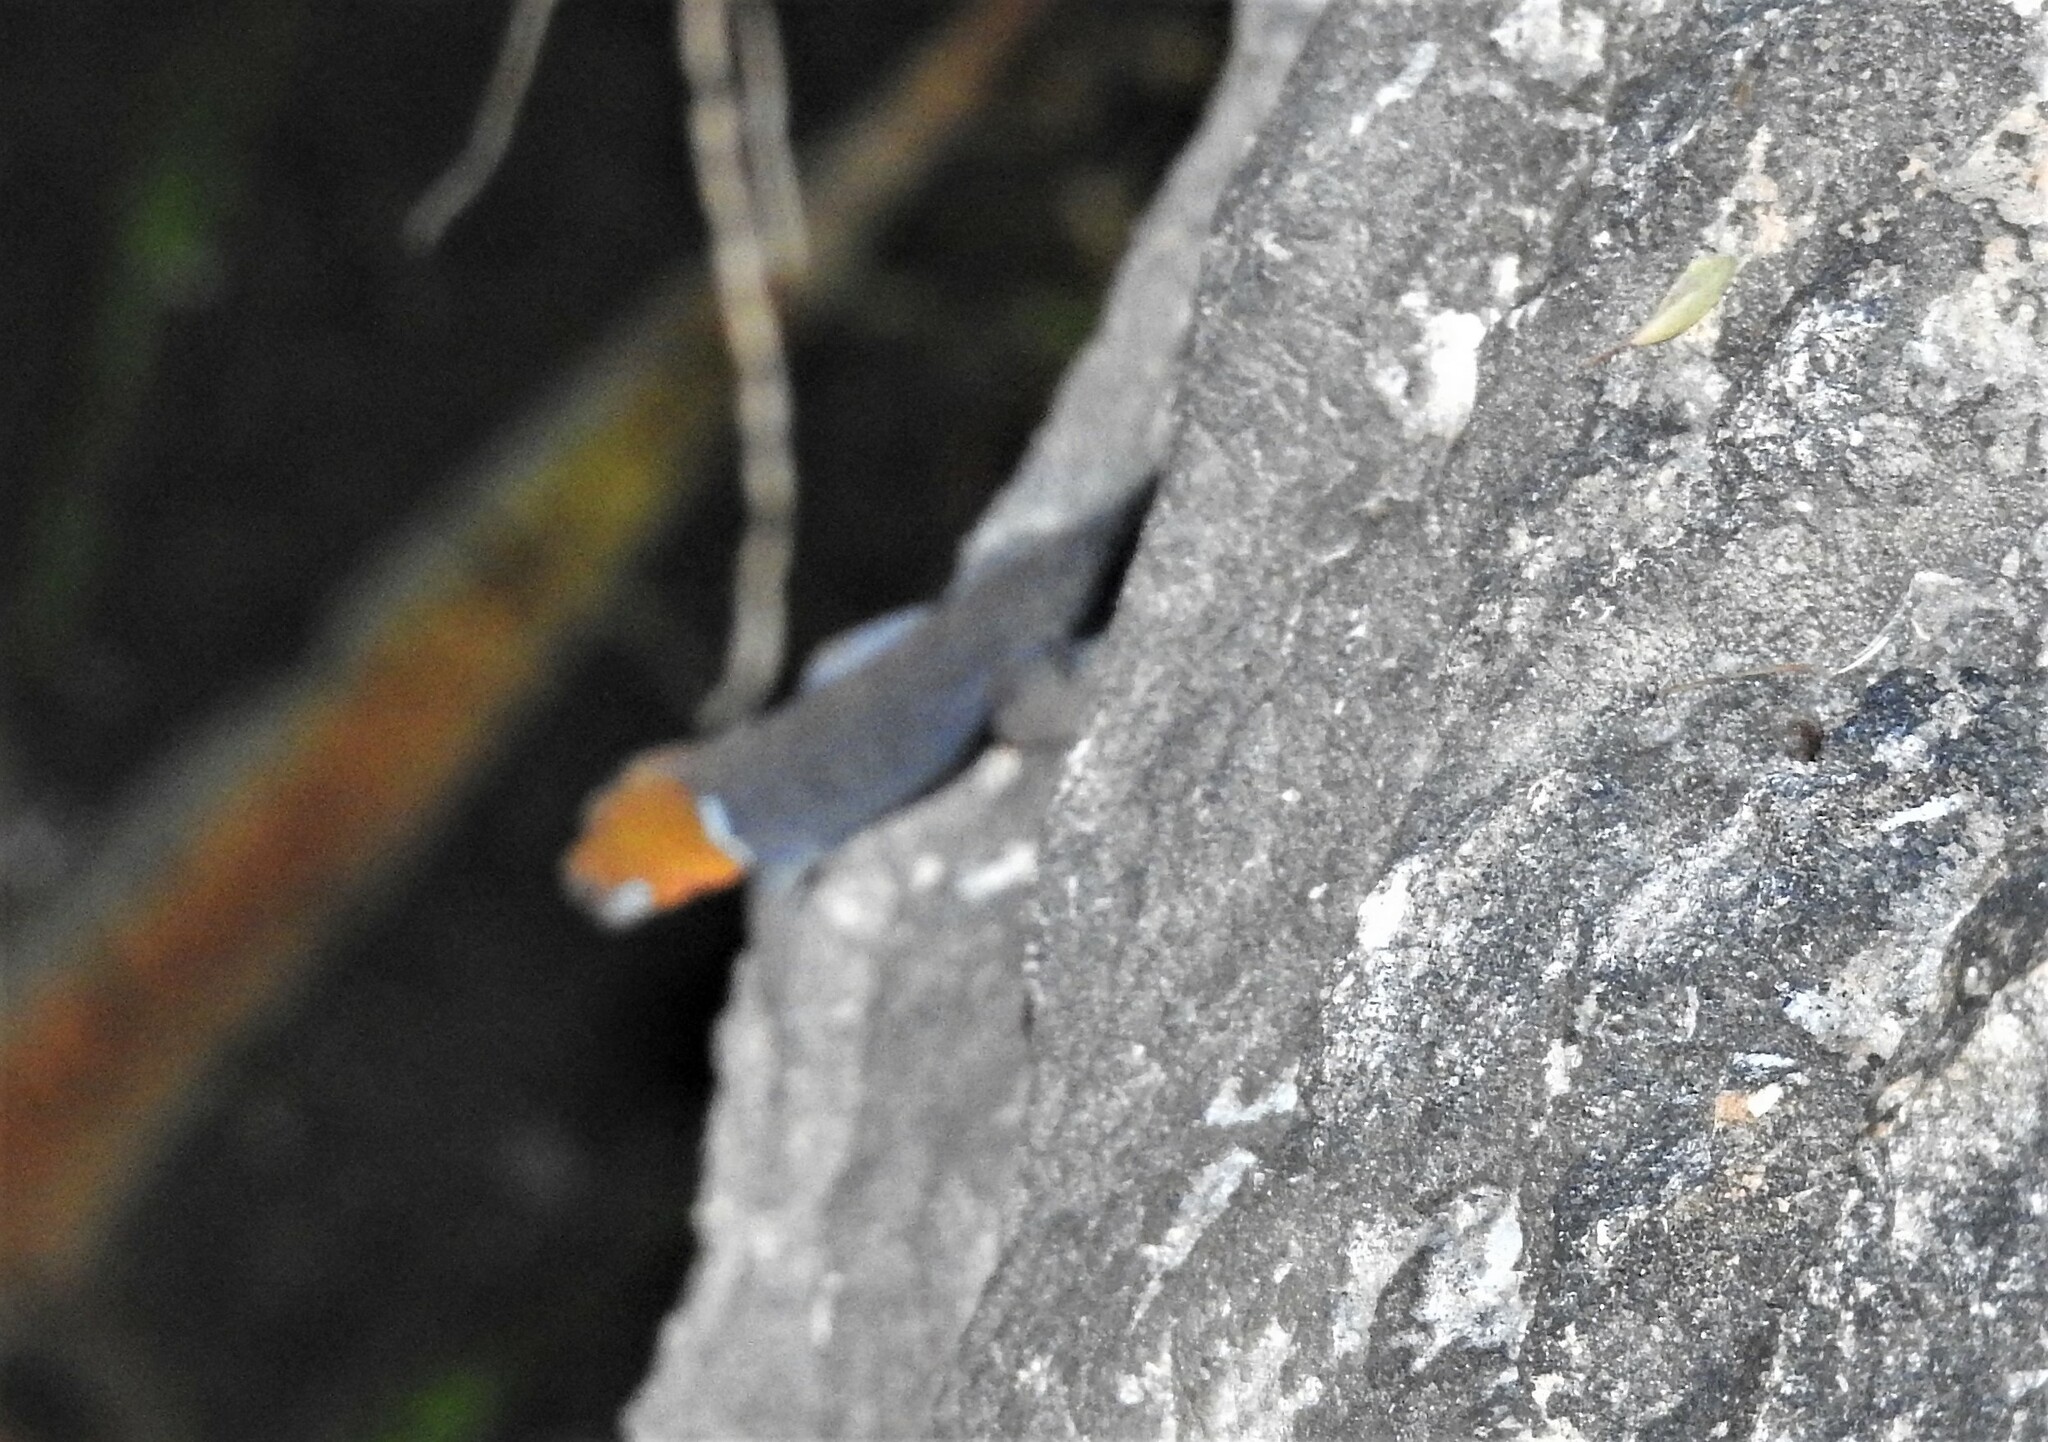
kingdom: Animalia
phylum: Chordata
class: Squamata
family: Sphaerodactylidae
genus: Gonatodes
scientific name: Gonatodes albogularis
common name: Yellow-headed gecko
